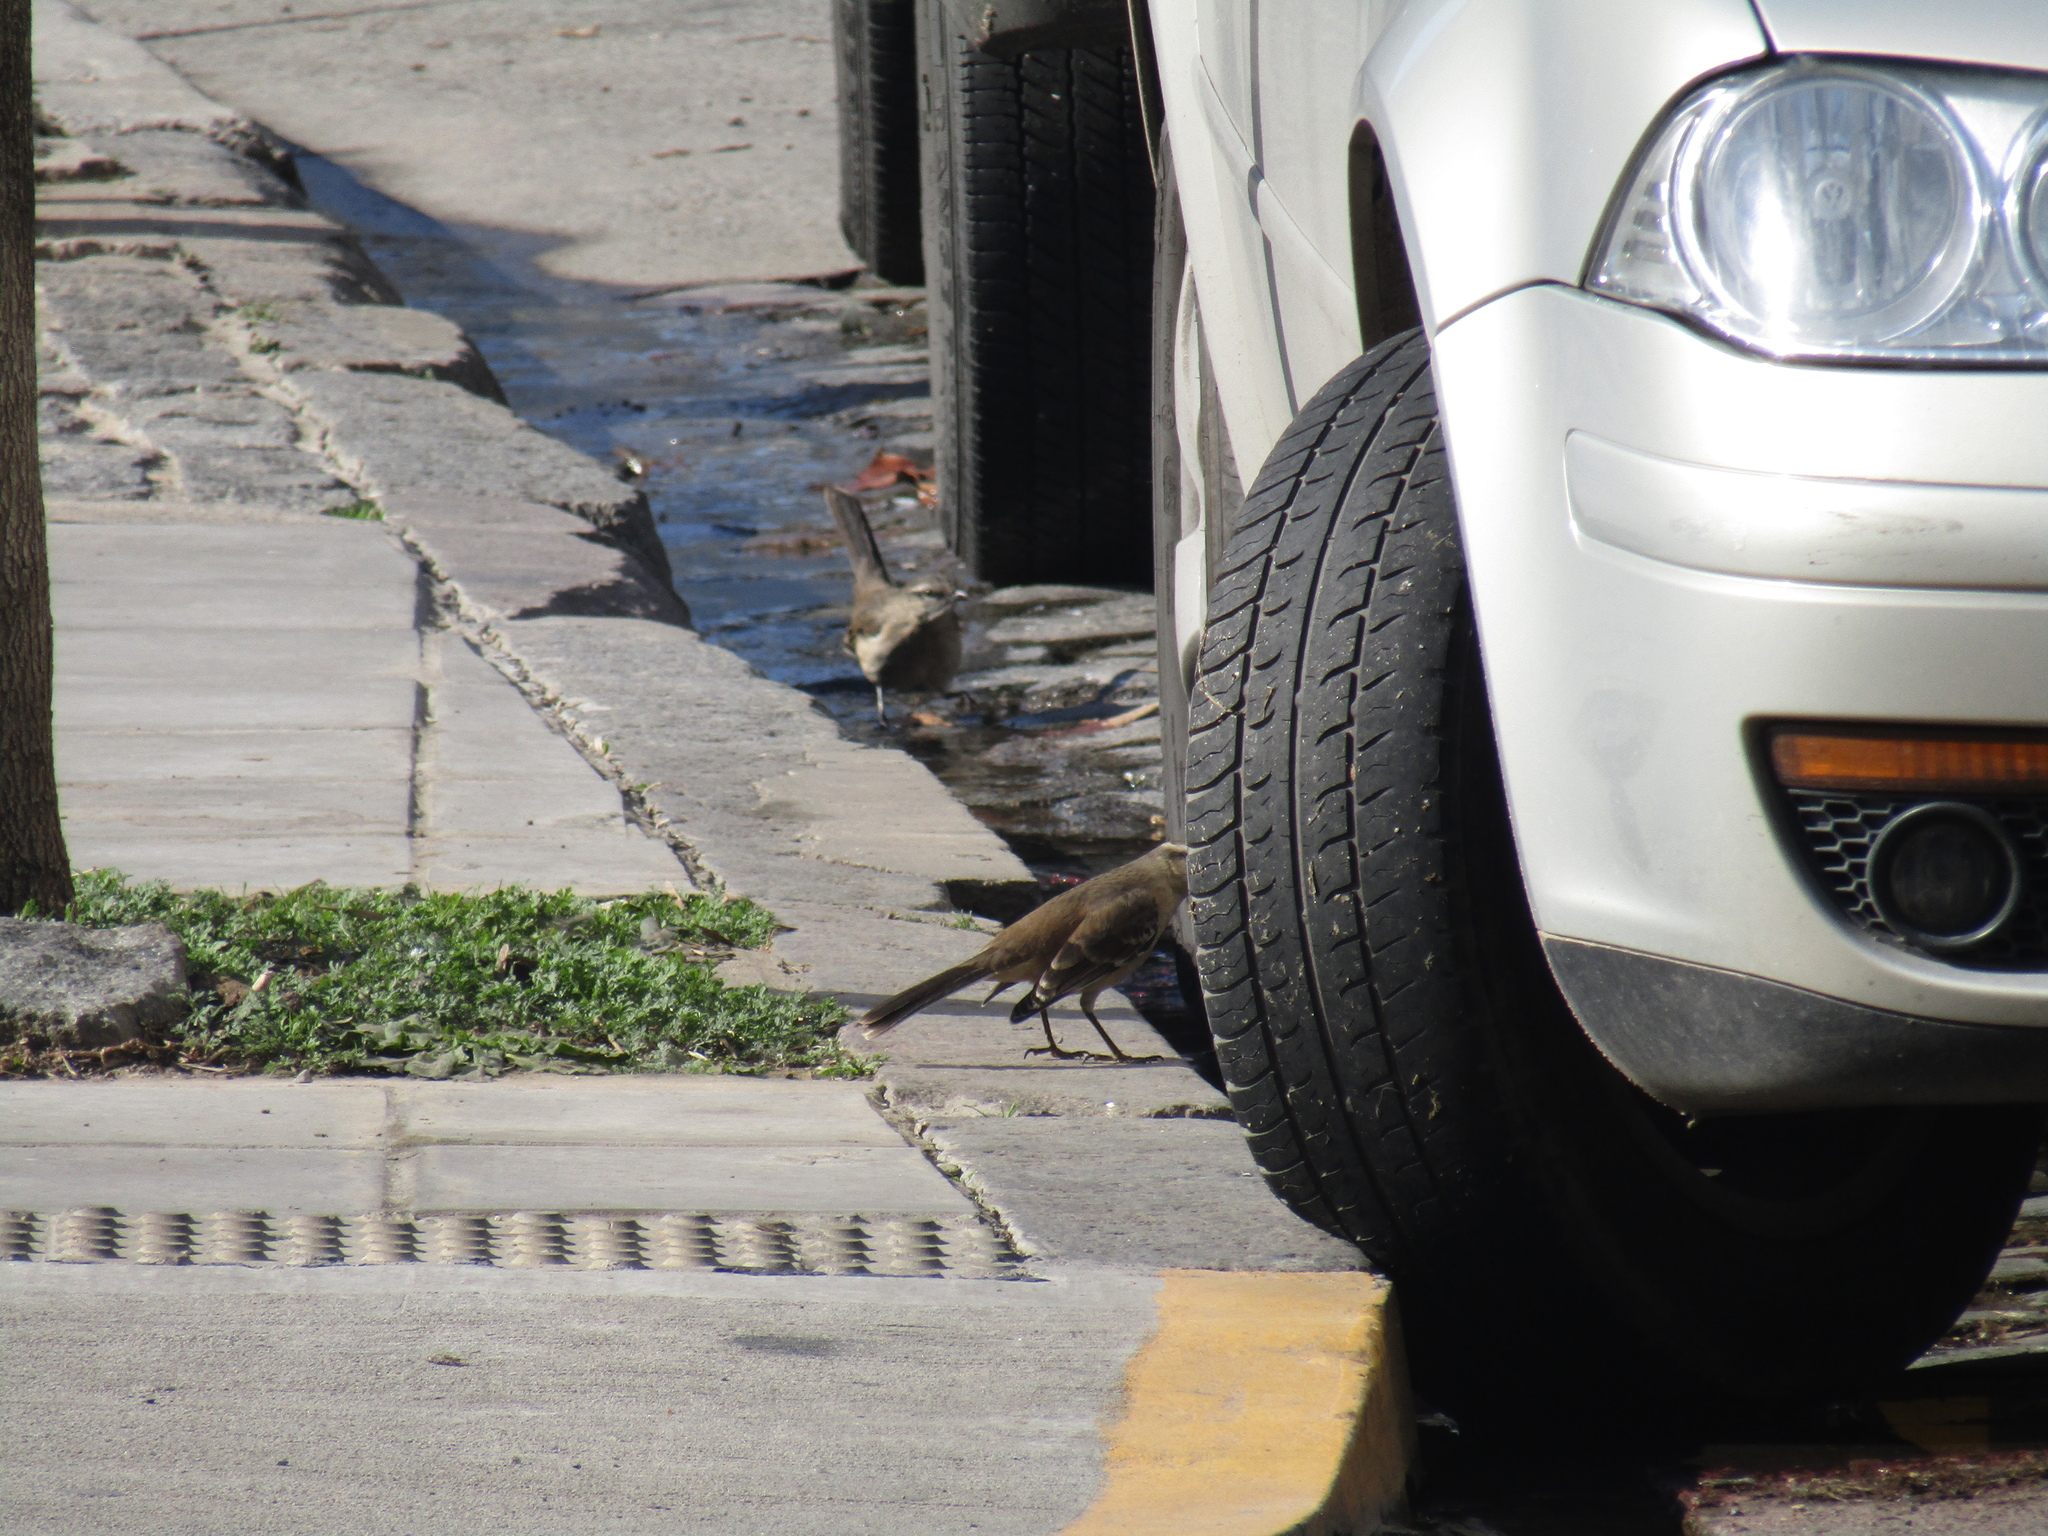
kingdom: Animalia
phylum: Chordata
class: Aves
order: Passeriformes
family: Mimidae
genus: Mimus
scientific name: Mimus saturninus
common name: Chalk-browed mockingbird
